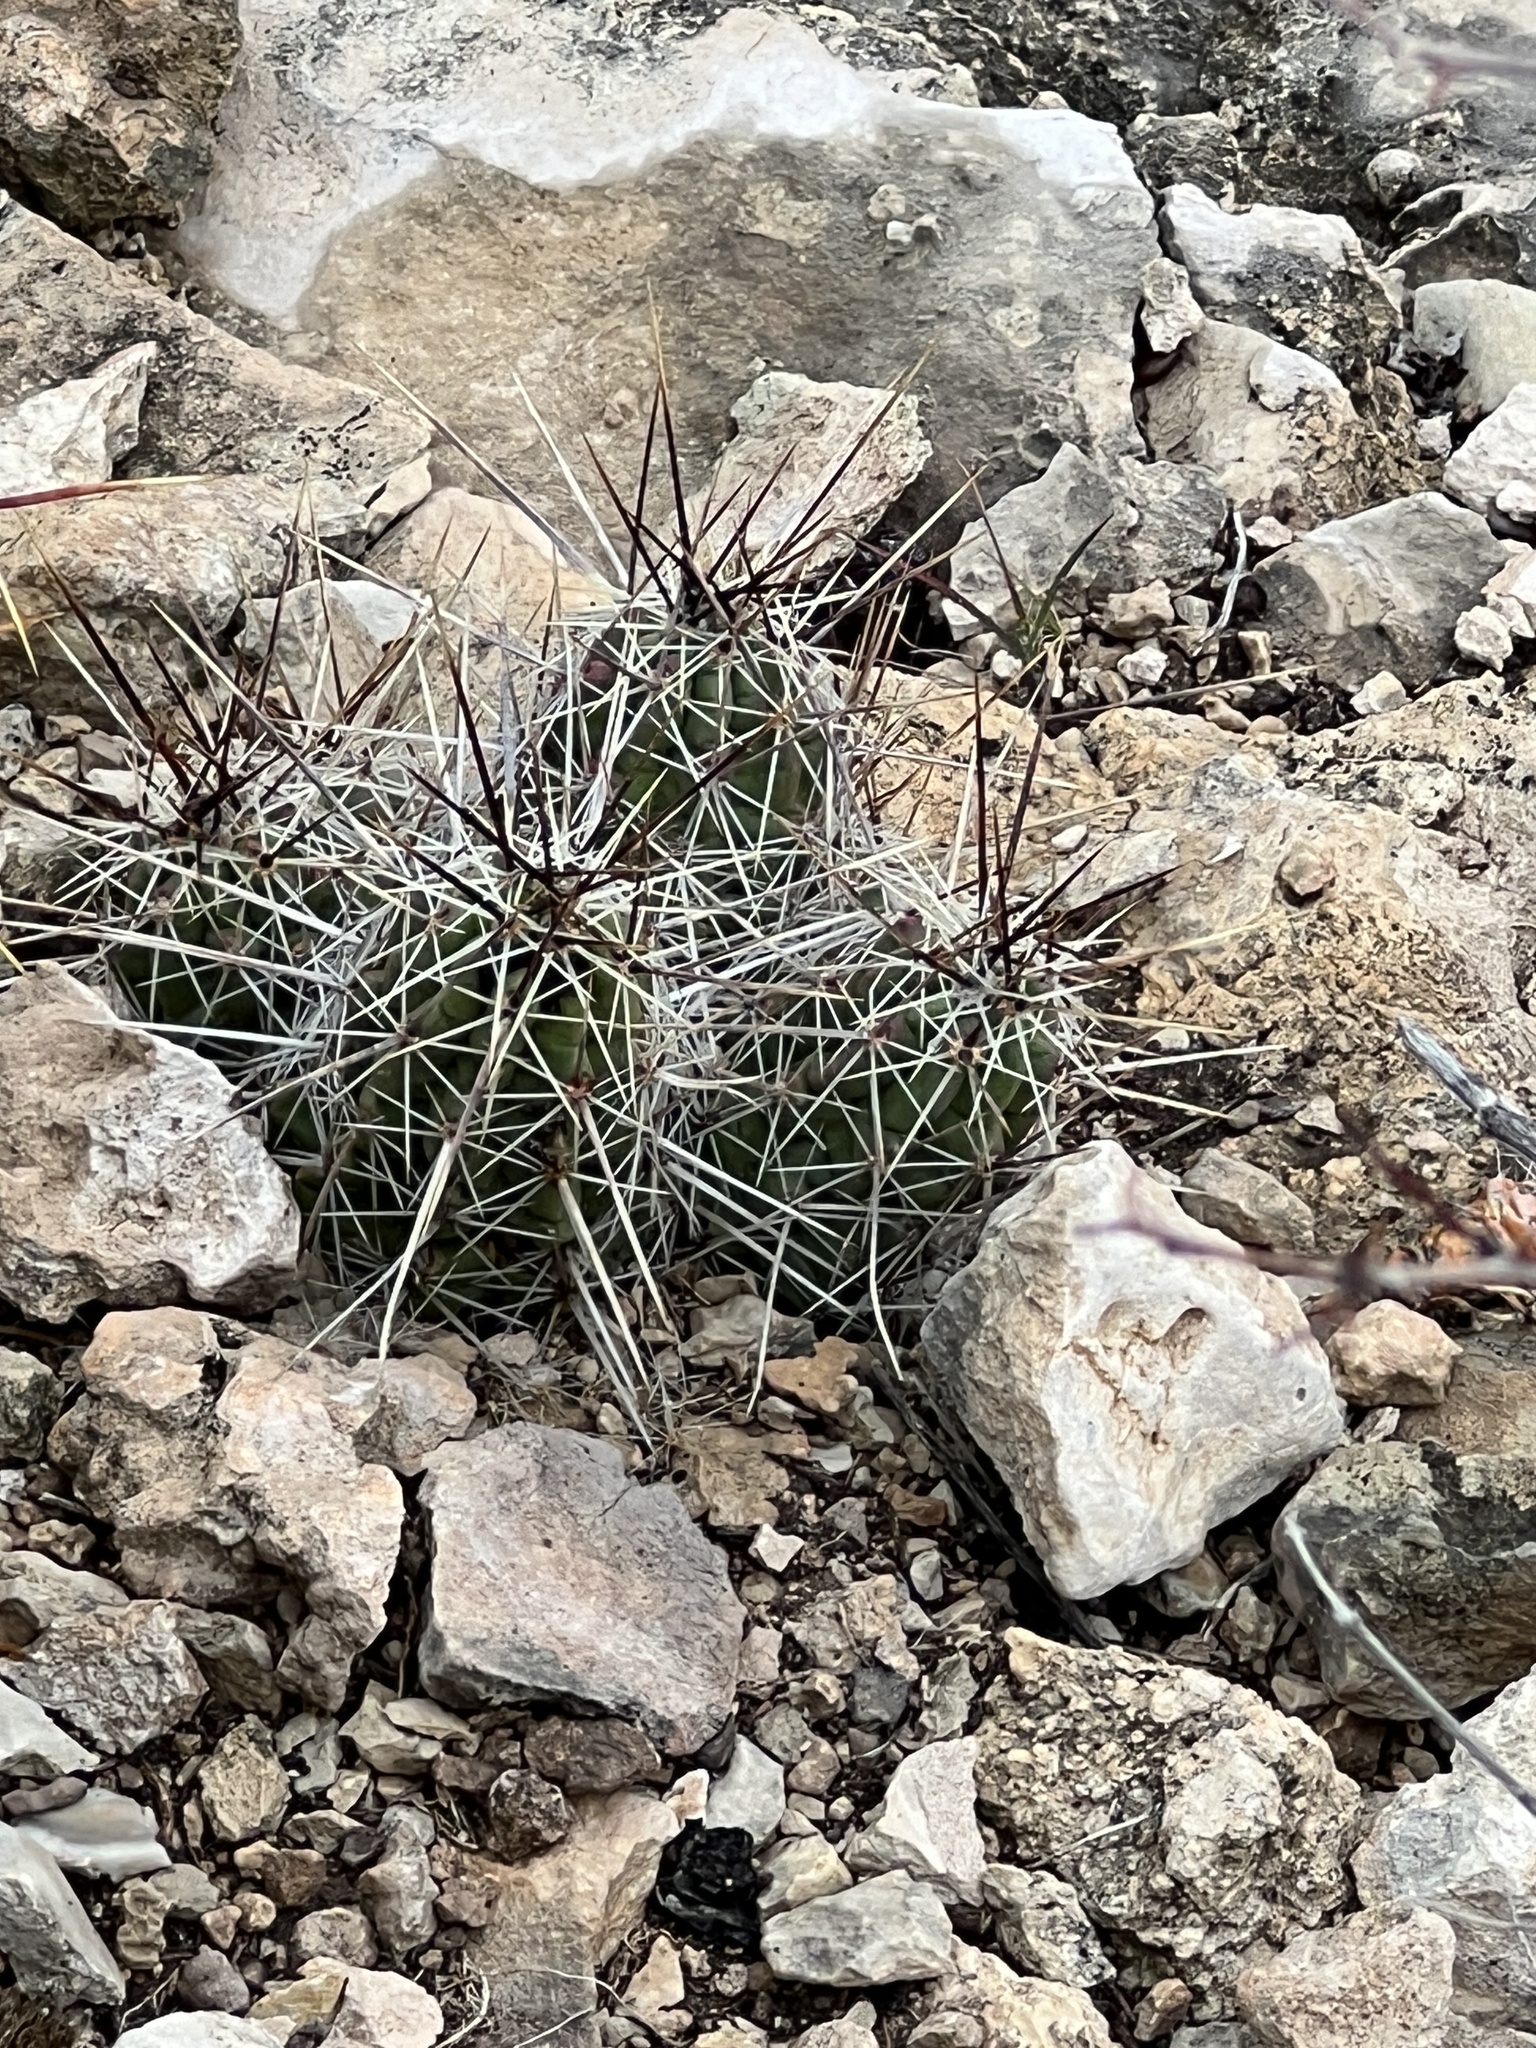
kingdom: Plantae
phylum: Tracheophyta
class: Magnoliopsida
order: Caryophyllales
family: Cactaceae
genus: Echinocereus
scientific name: Echinocereus enneacanthus
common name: Pitaya
